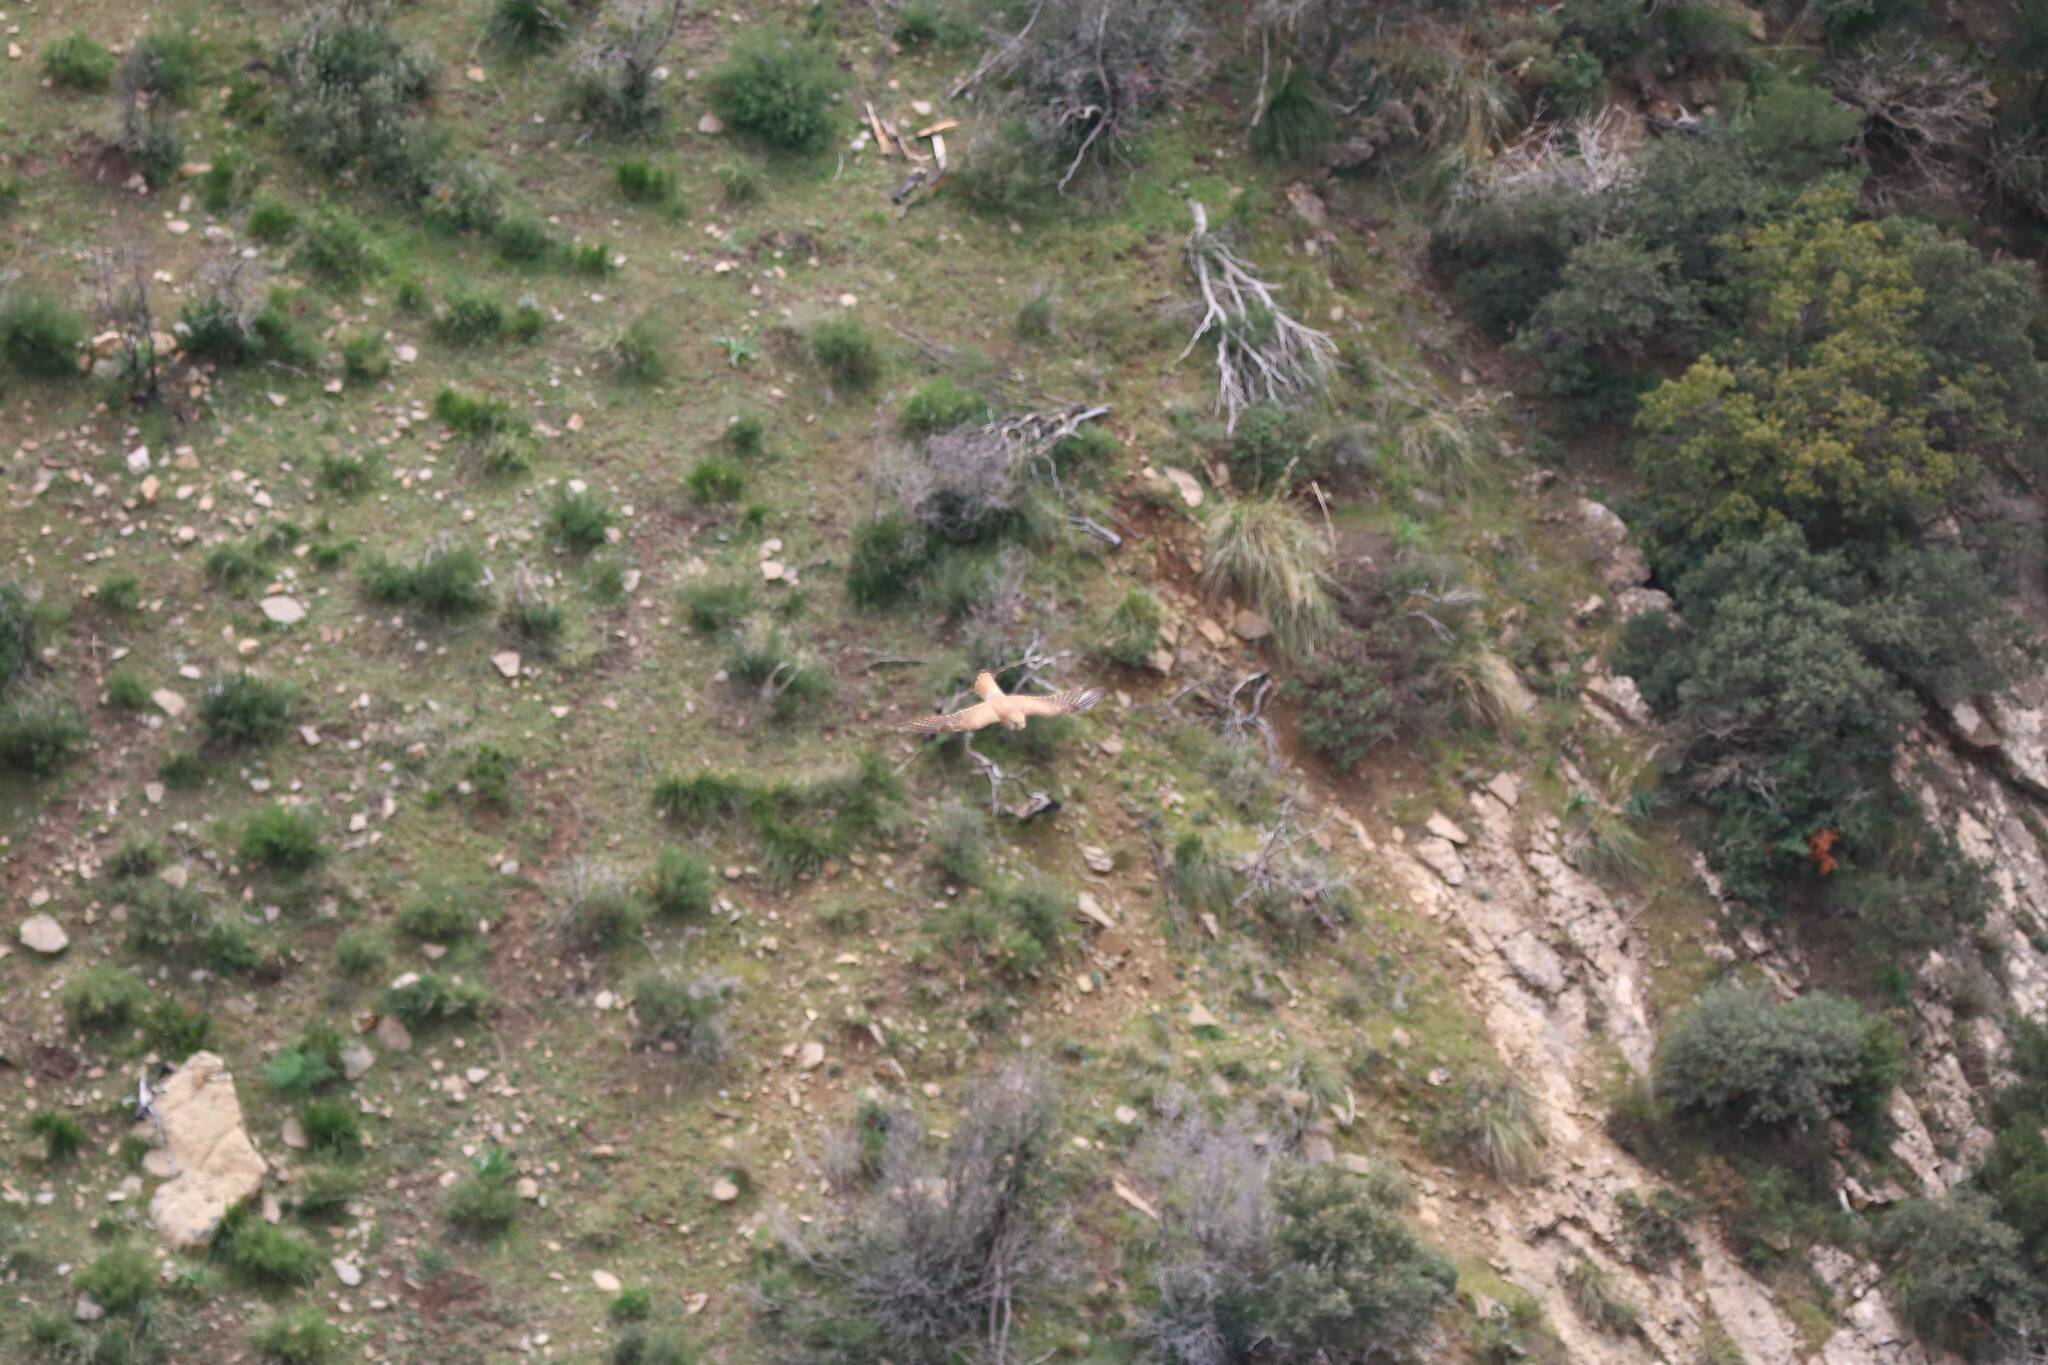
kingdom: Animalia
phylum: Chordata
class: Aves
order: Falconiformes
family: Falconidae
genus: Falco
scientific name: Falco naumanni
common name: Lesser kestrel
